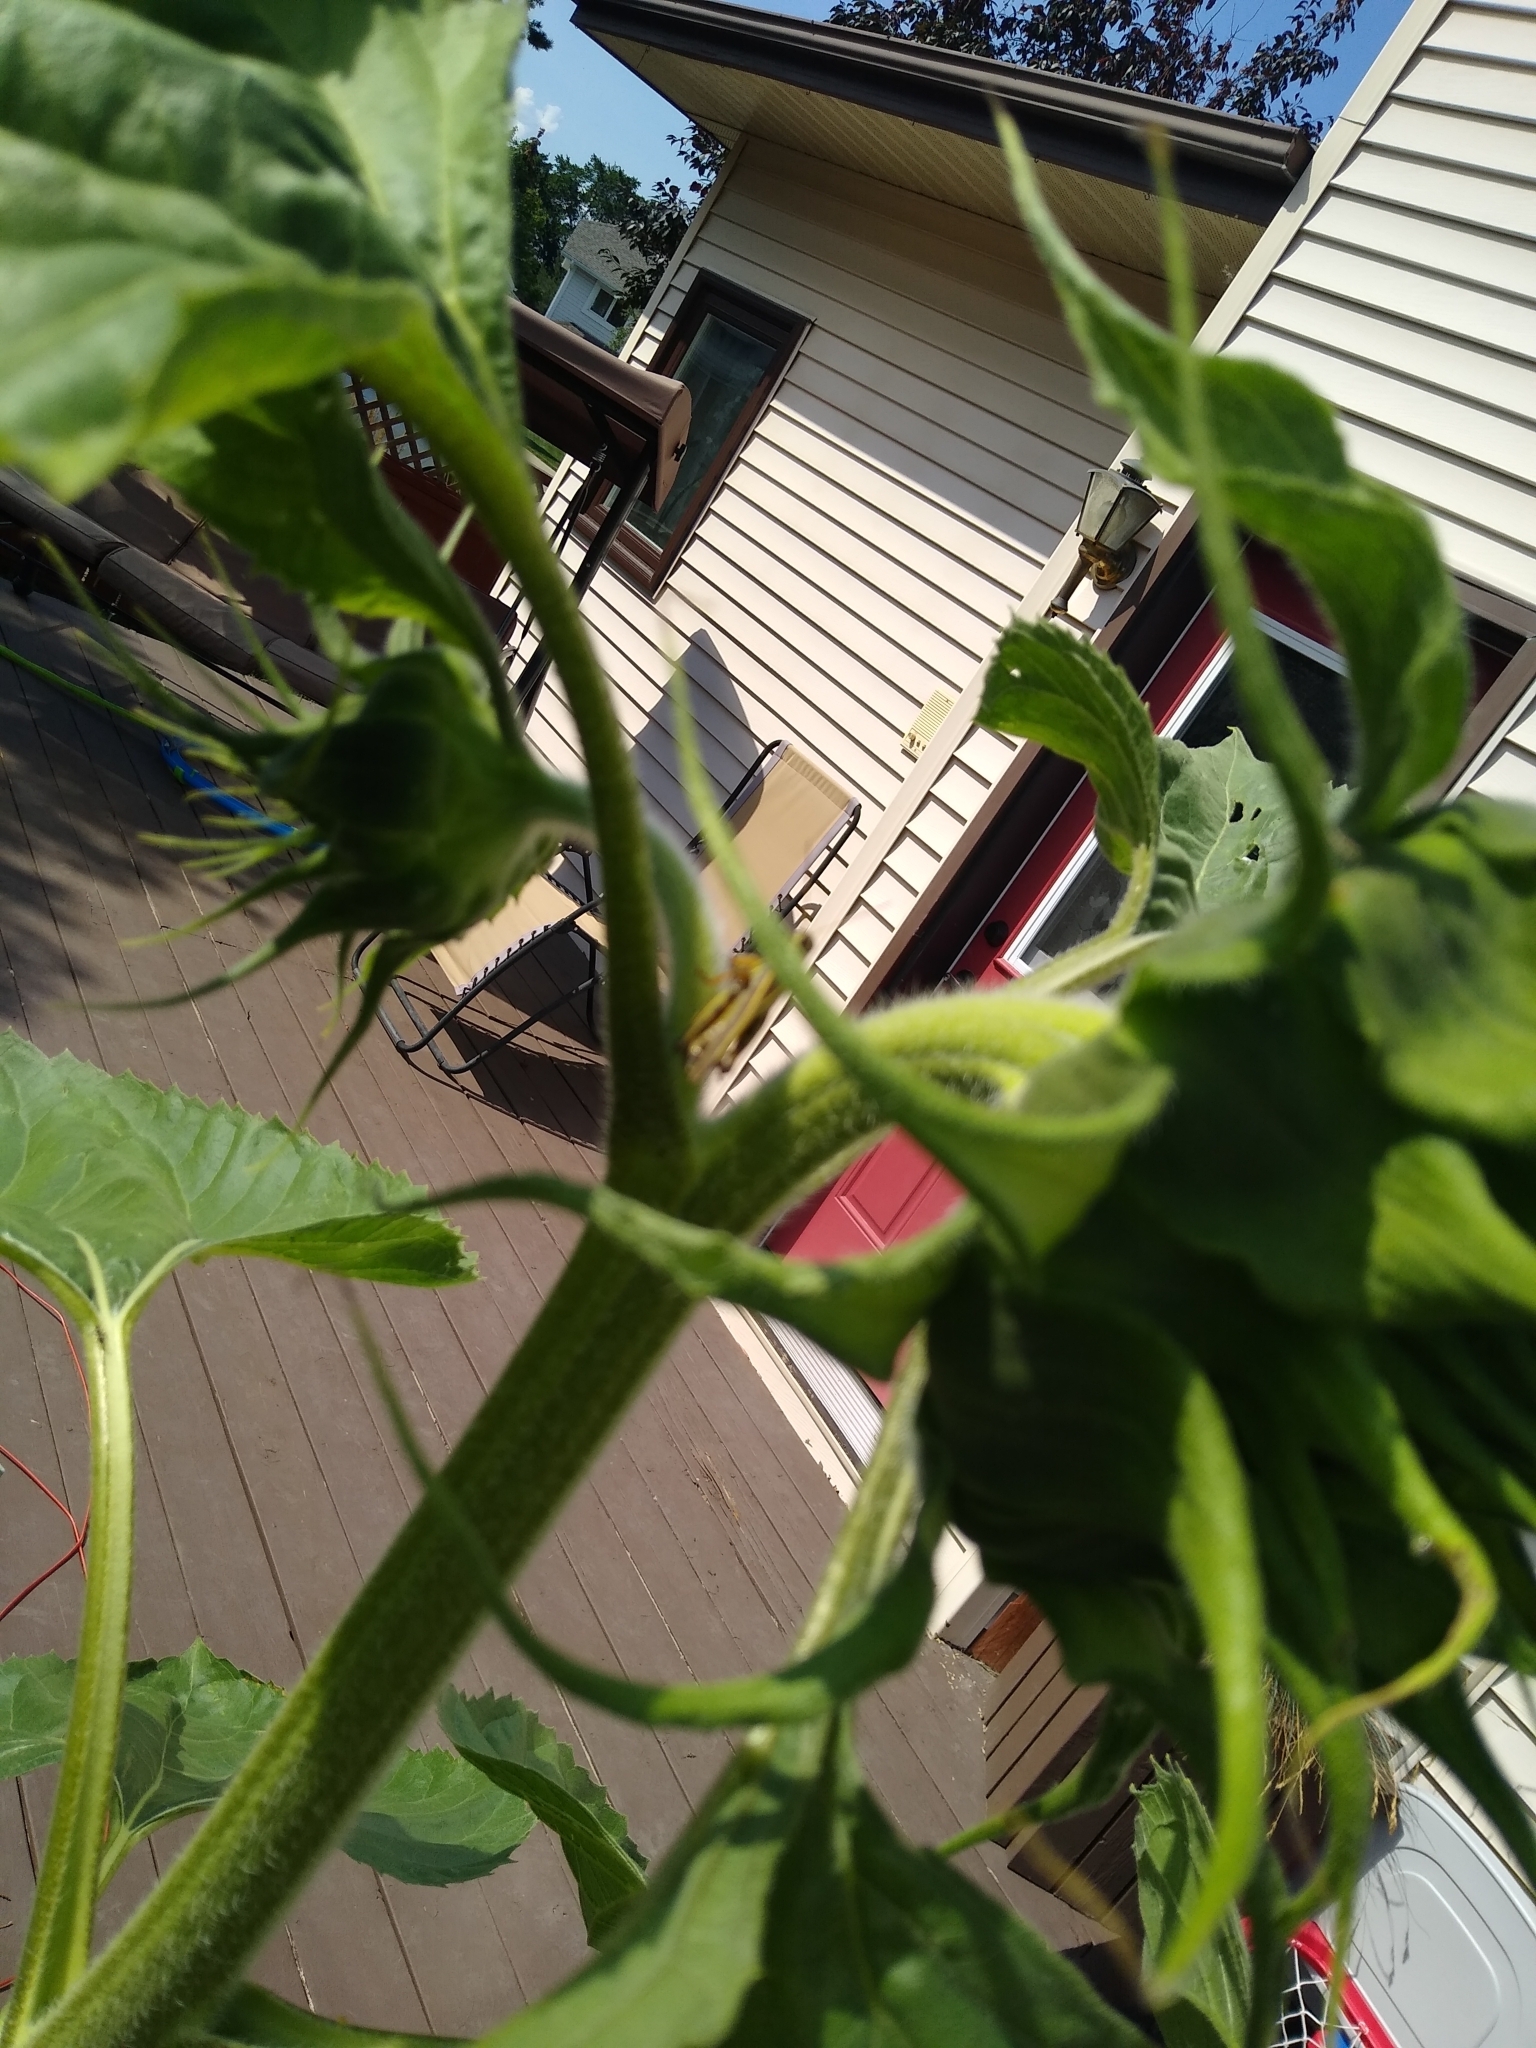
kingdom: Animalia
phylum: Arthropoda
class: Insecta
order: Orthoptera
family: Acrididae
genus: Melanoplus
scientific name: Melanoplus bivittatus
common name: Two-striped grasshopper
